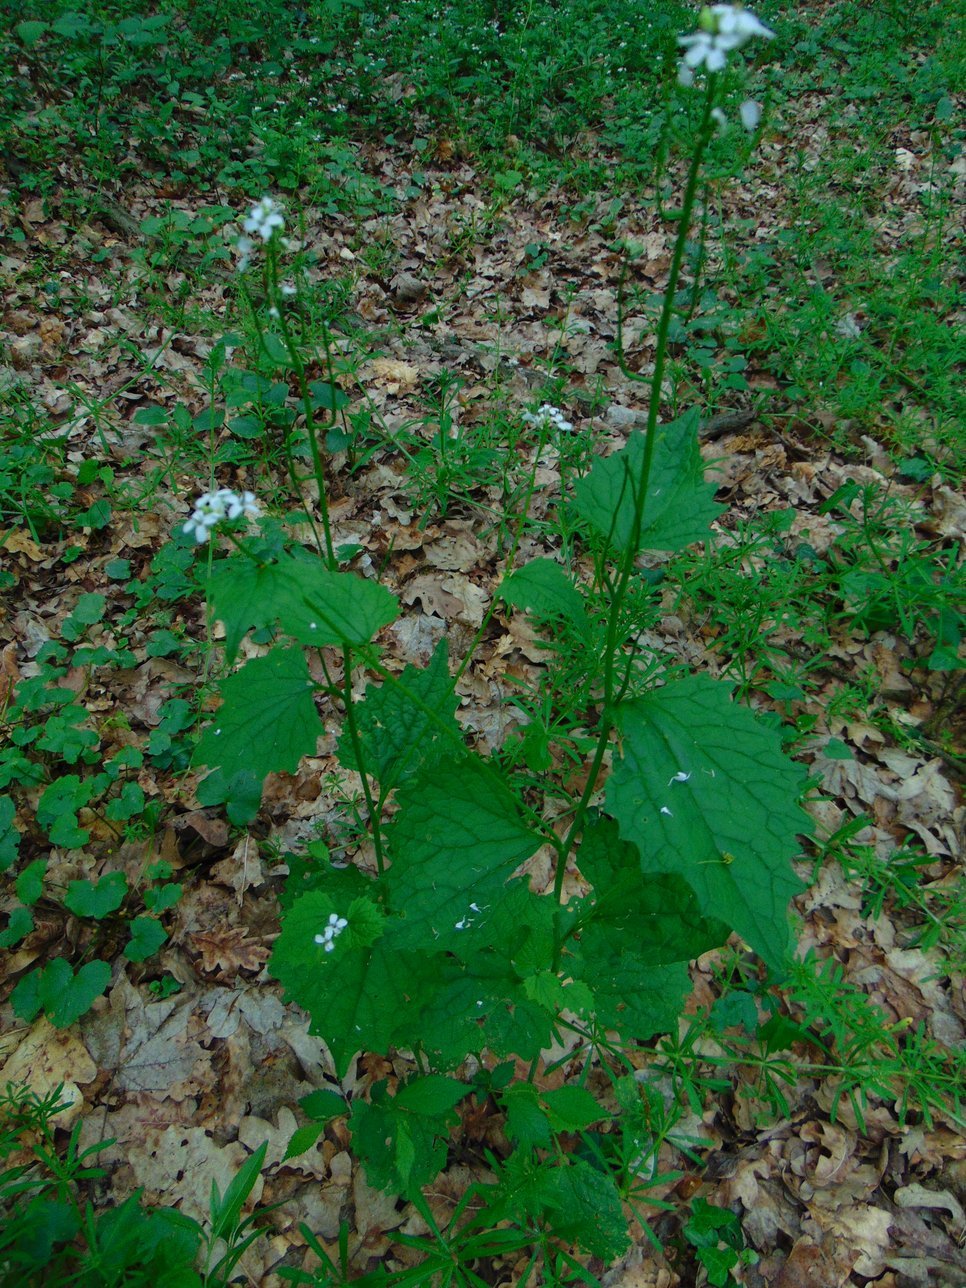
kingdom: Plantae
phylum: Tracheophyta
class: Magnoliopsida
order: Brassicales
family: Brassicaceae
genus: Alliaria
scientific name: Alliaria petiolata
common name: Garlic mustard
